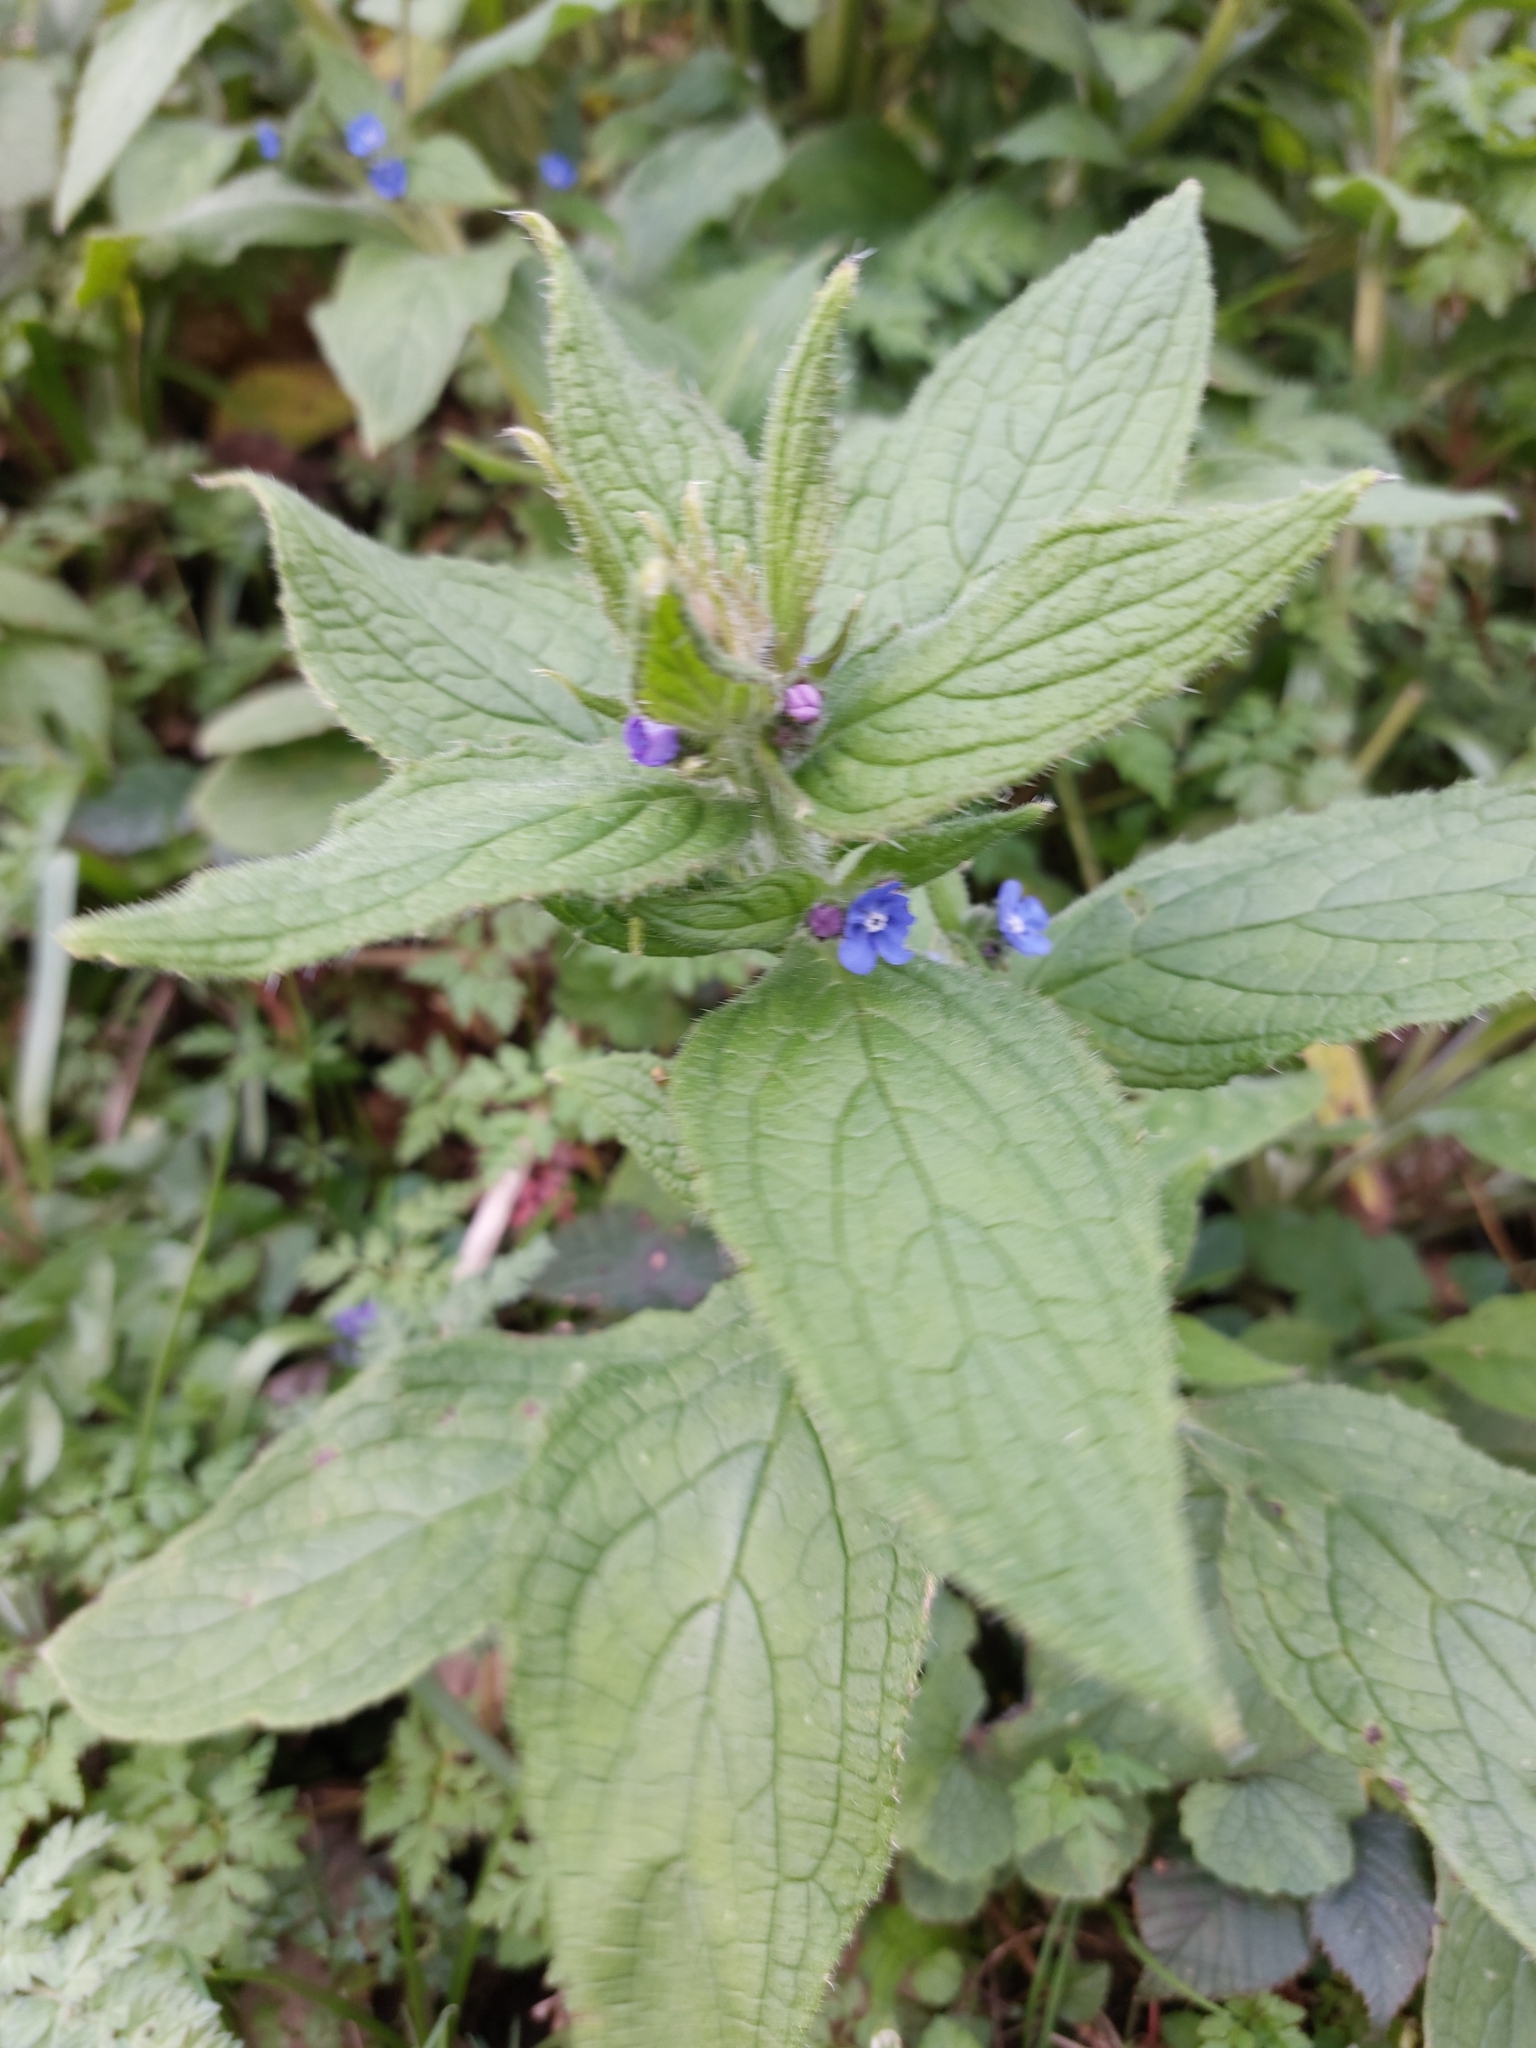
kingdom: Plantae
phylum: Tracheophyta
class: Magnoliopsida
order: Boraginales
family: Boraginaceae
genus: Pentaglottis
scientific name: Pentaglottis sempervirens
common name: Green alkanet
